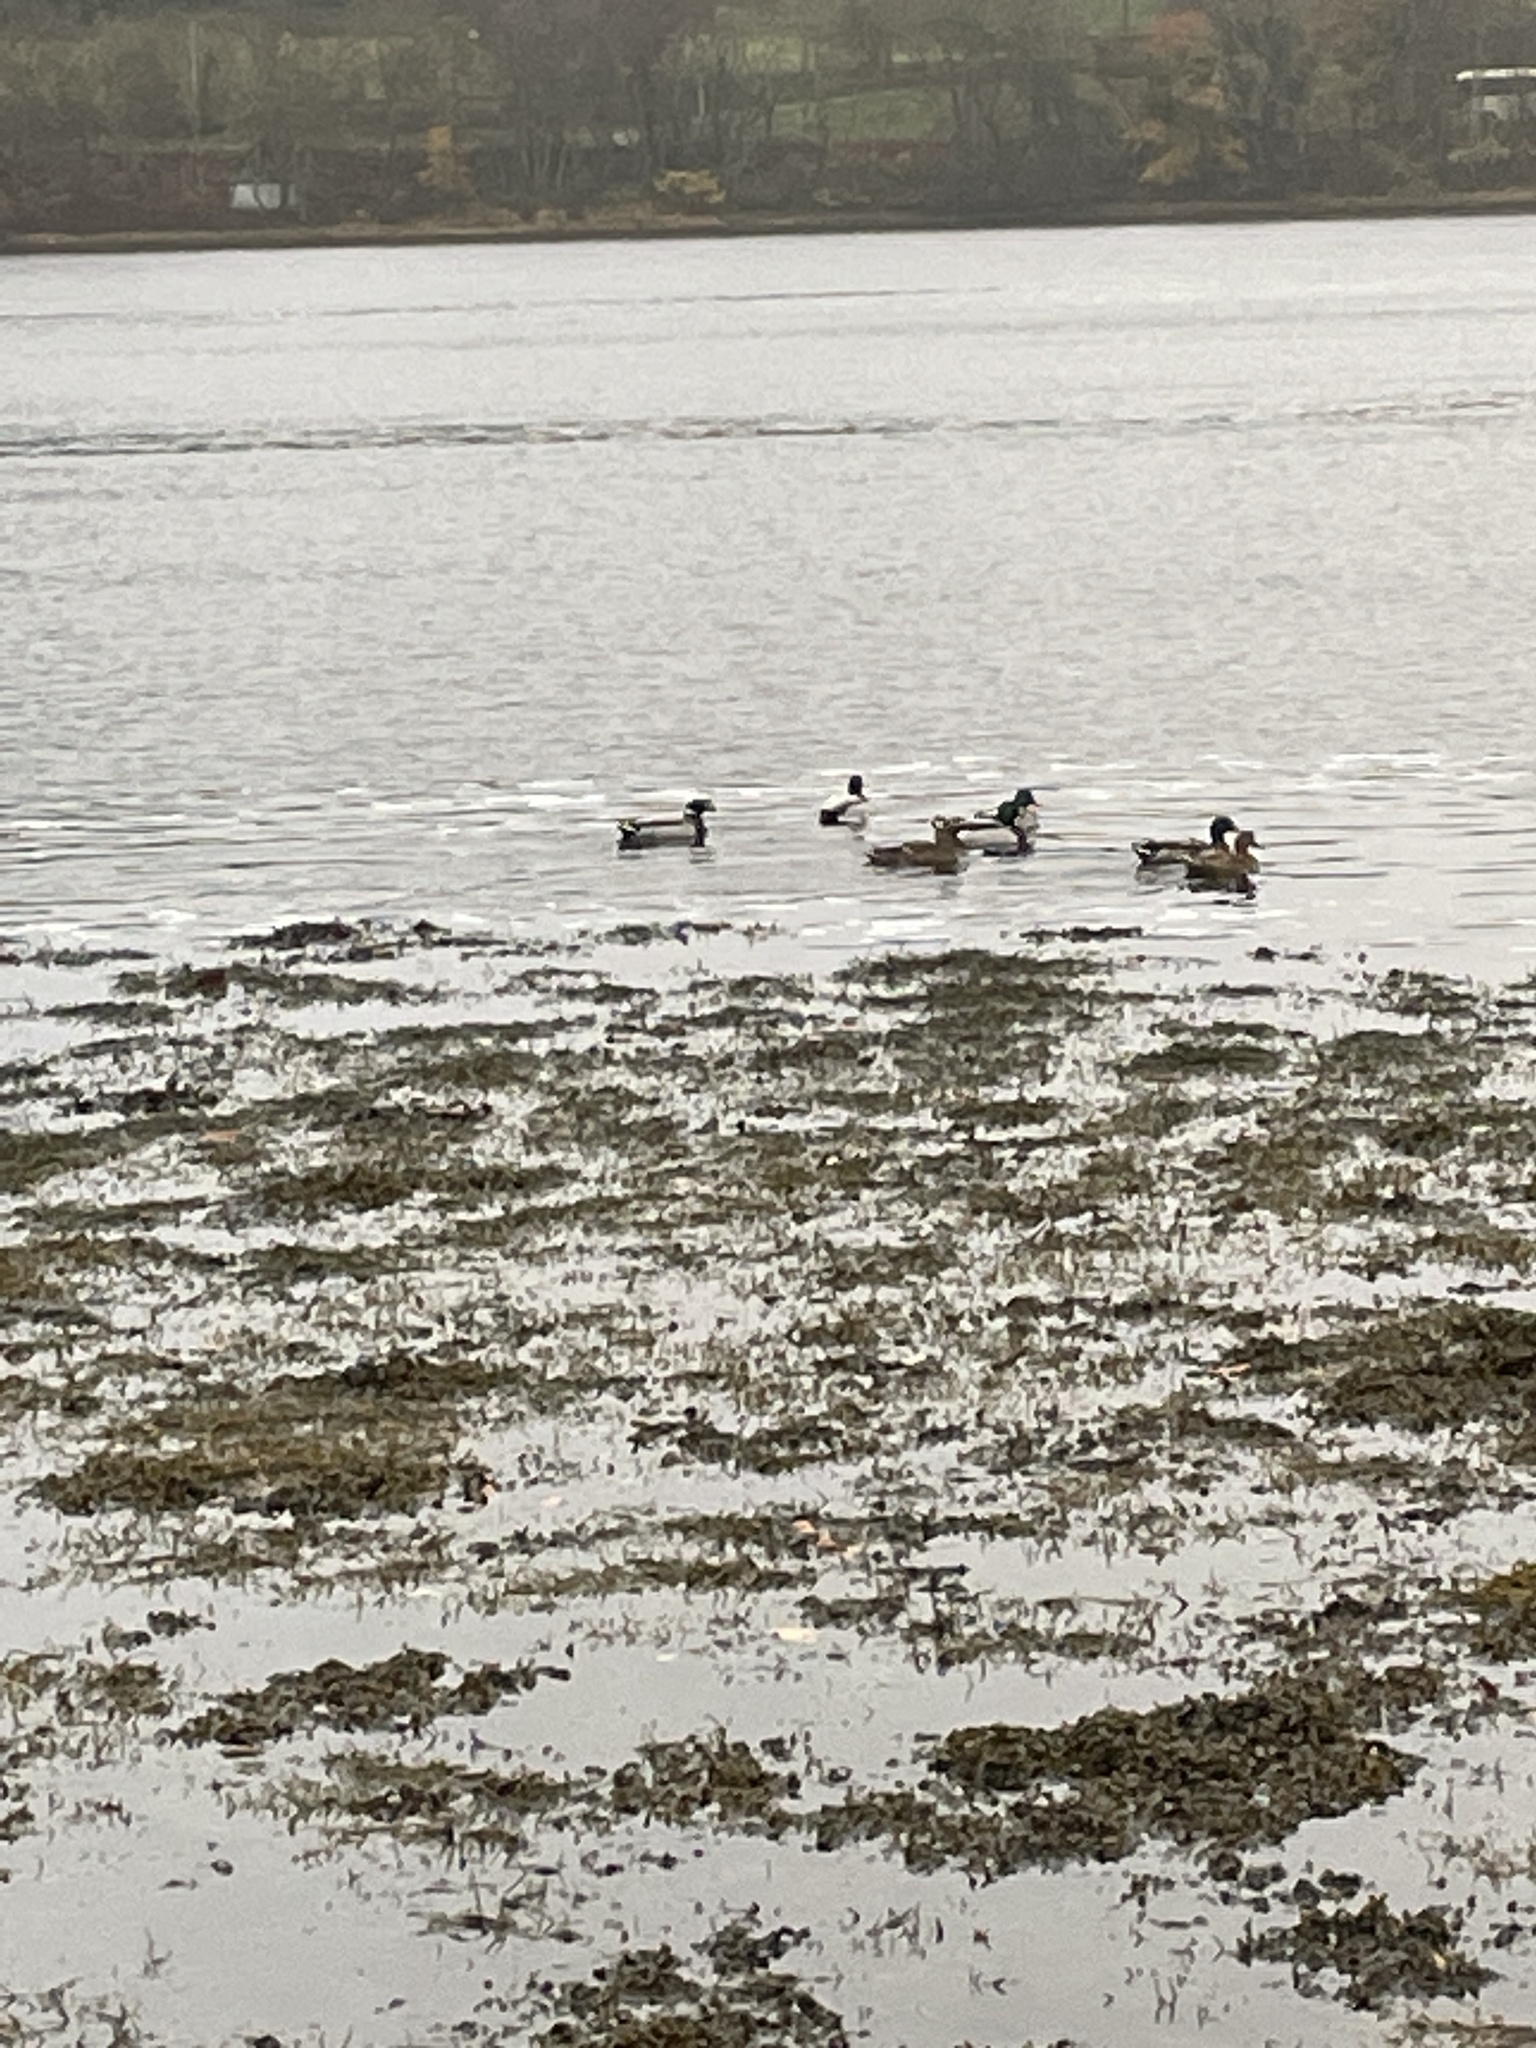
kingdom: Animalia
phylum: Chordata
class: Aves
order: Anseriformes
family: Anatidae
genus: Anas
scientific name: Anas platyrhynchos
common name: Mallard
